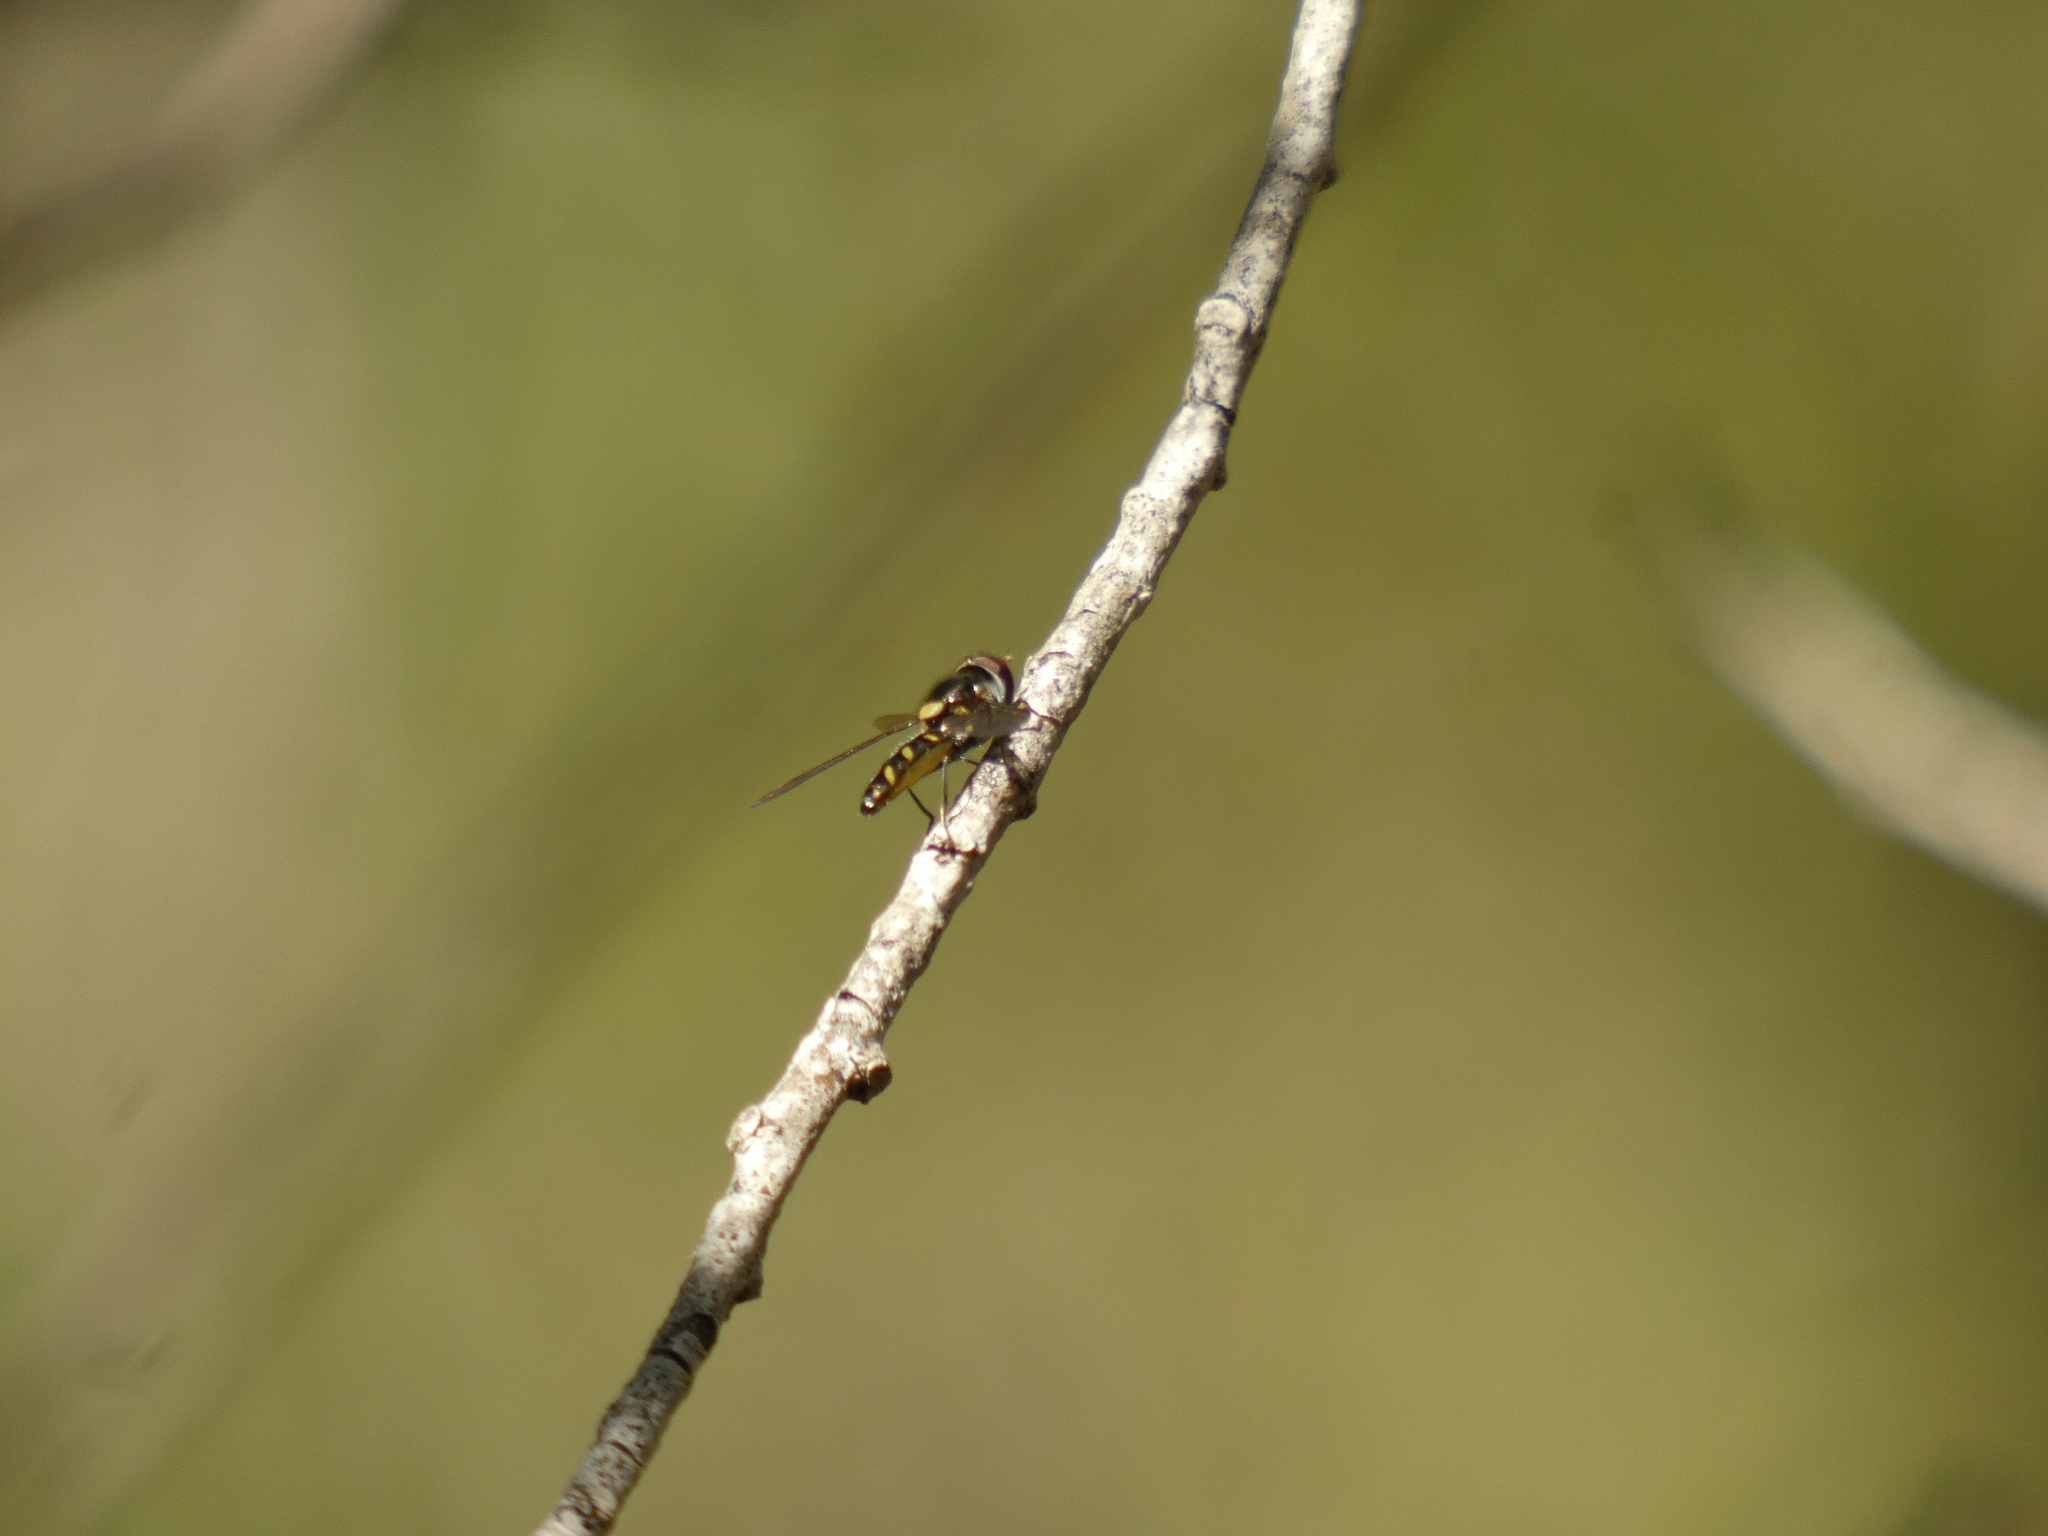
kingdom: Animalia
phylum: Arthropoda
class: Insecta
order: Diptera
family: Syrphidae
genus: Allograpta
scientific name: Allograpta hortensis
